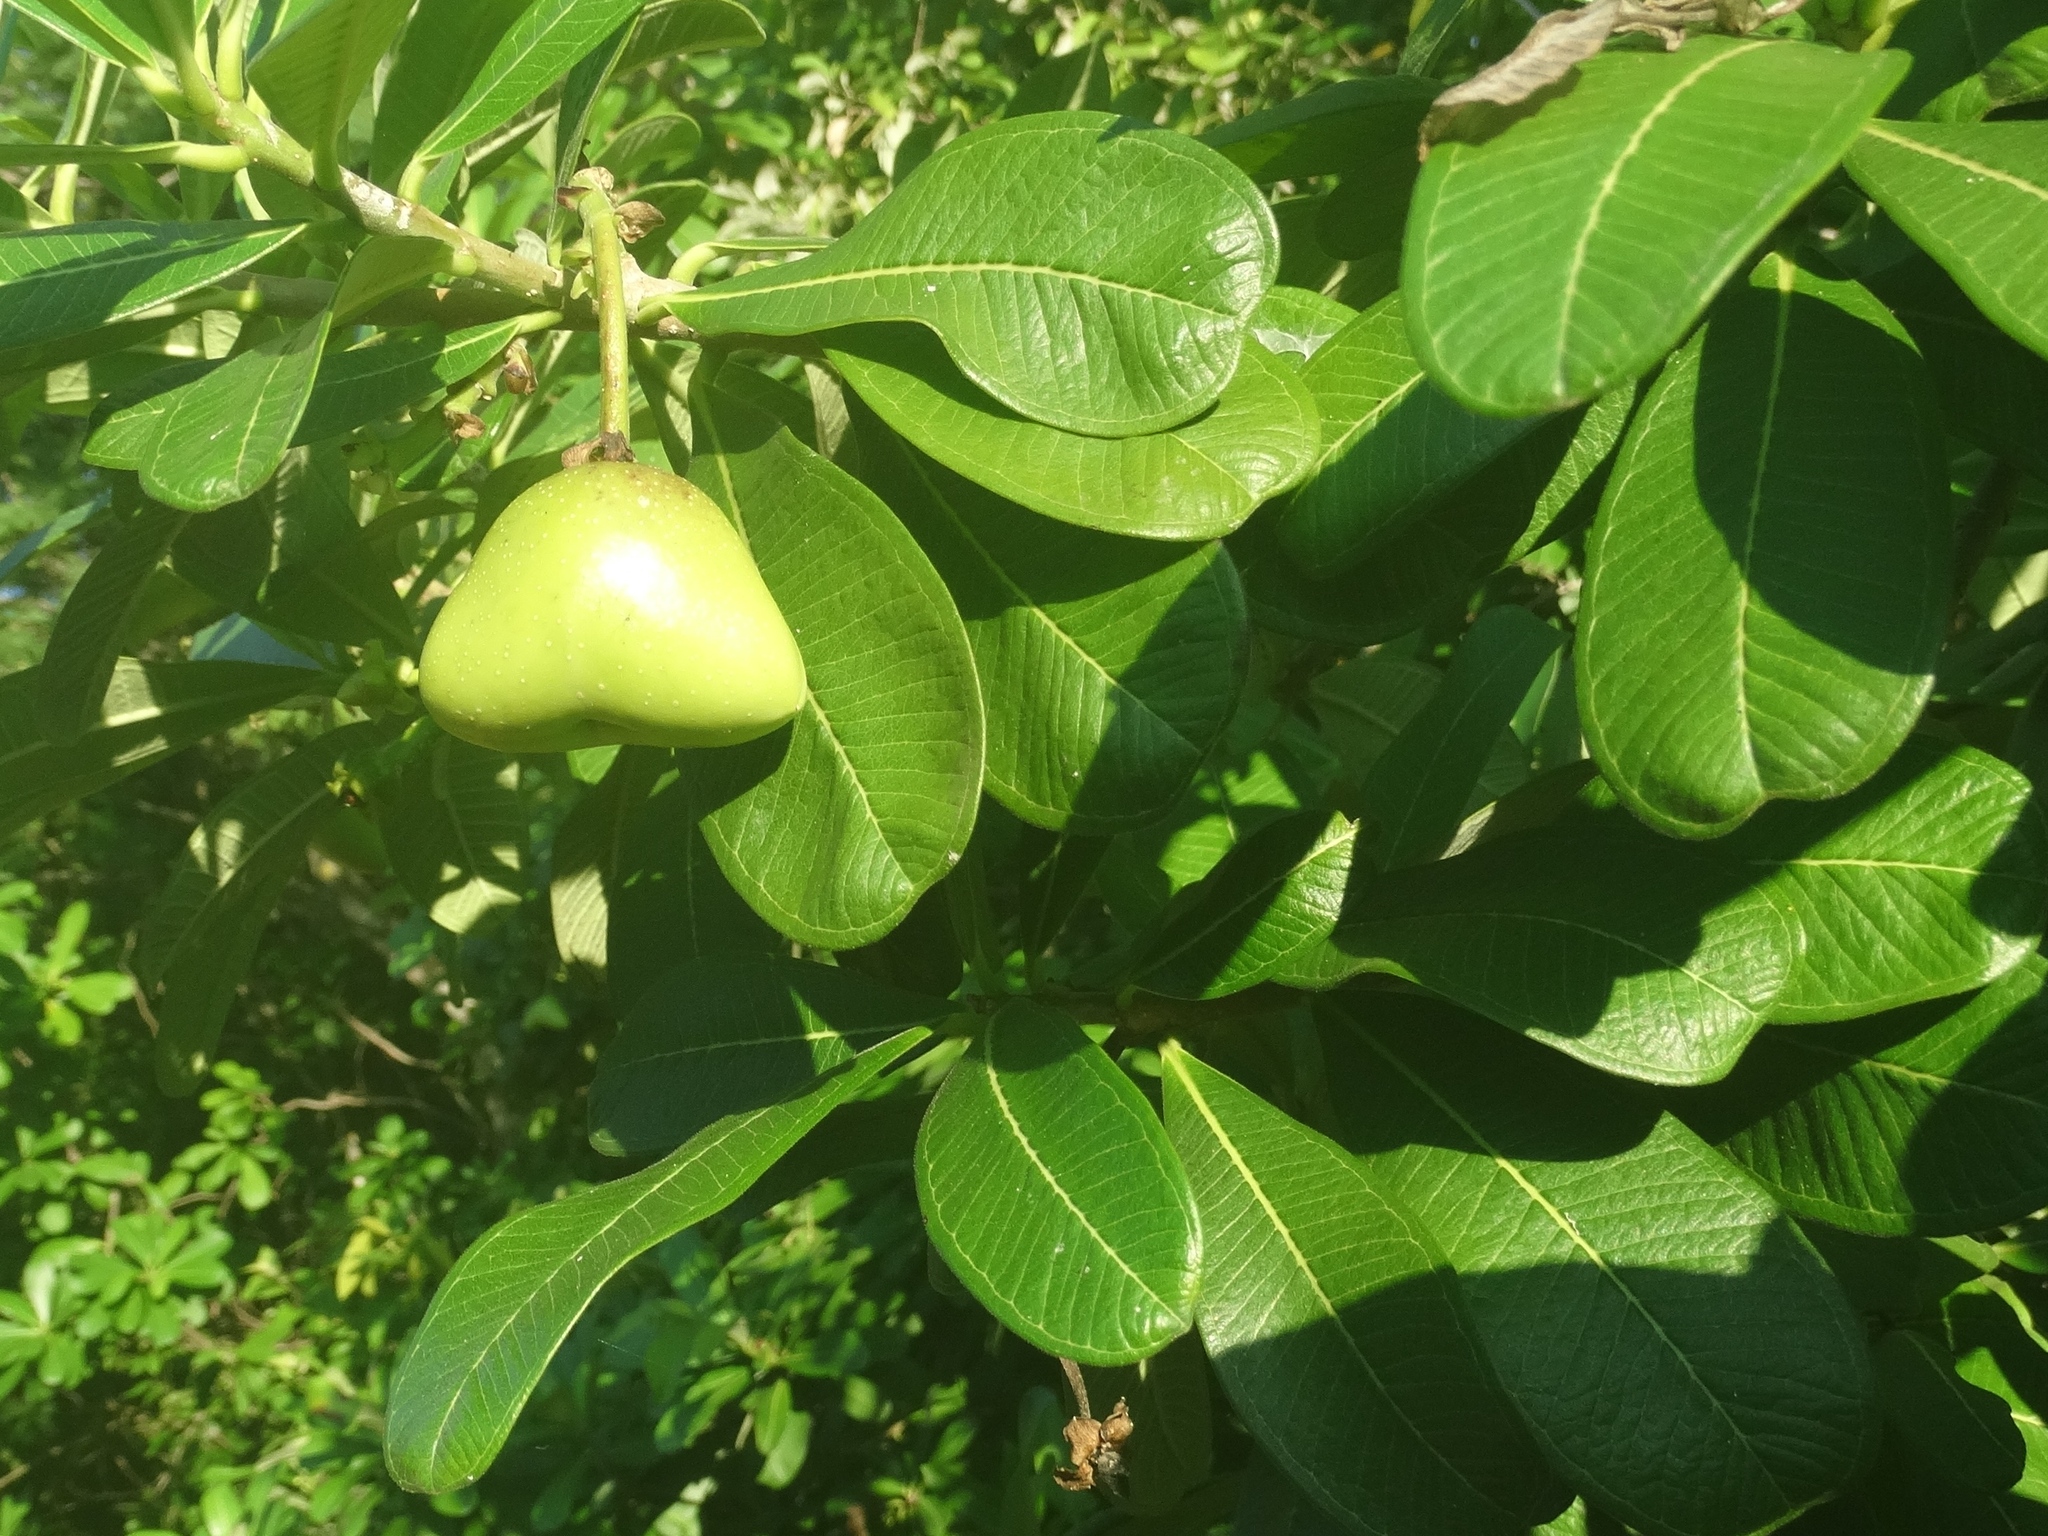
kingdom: Plantae
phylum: Tracheophyta
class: Magnoliopsida
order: Gentianales
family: Apocynaceae
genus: Cascabela
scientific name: Cascabela ovata
